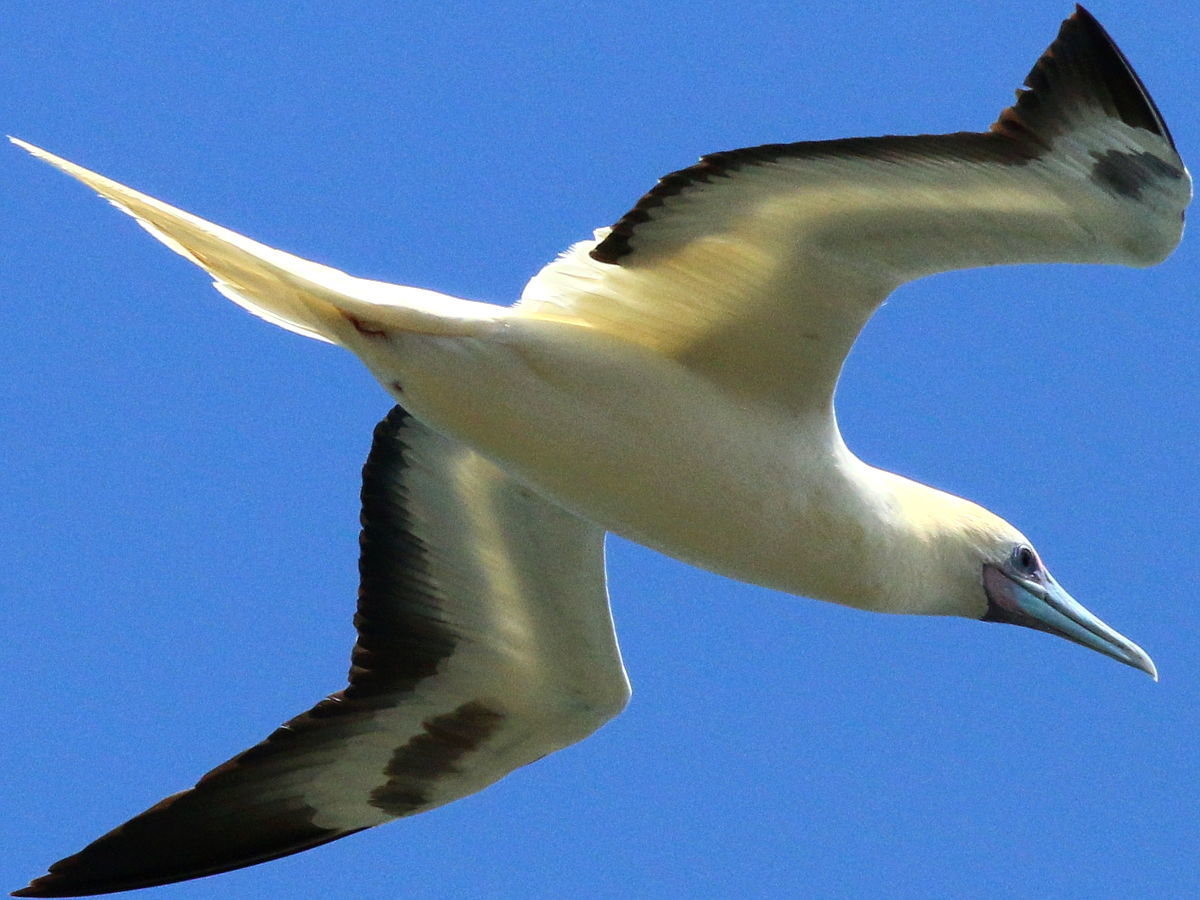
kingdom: Animalia
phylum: Chordata
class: Aves
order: Suliformes
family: Sulidae
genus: Sula
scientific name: Sula sula
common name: Red-footed booby
